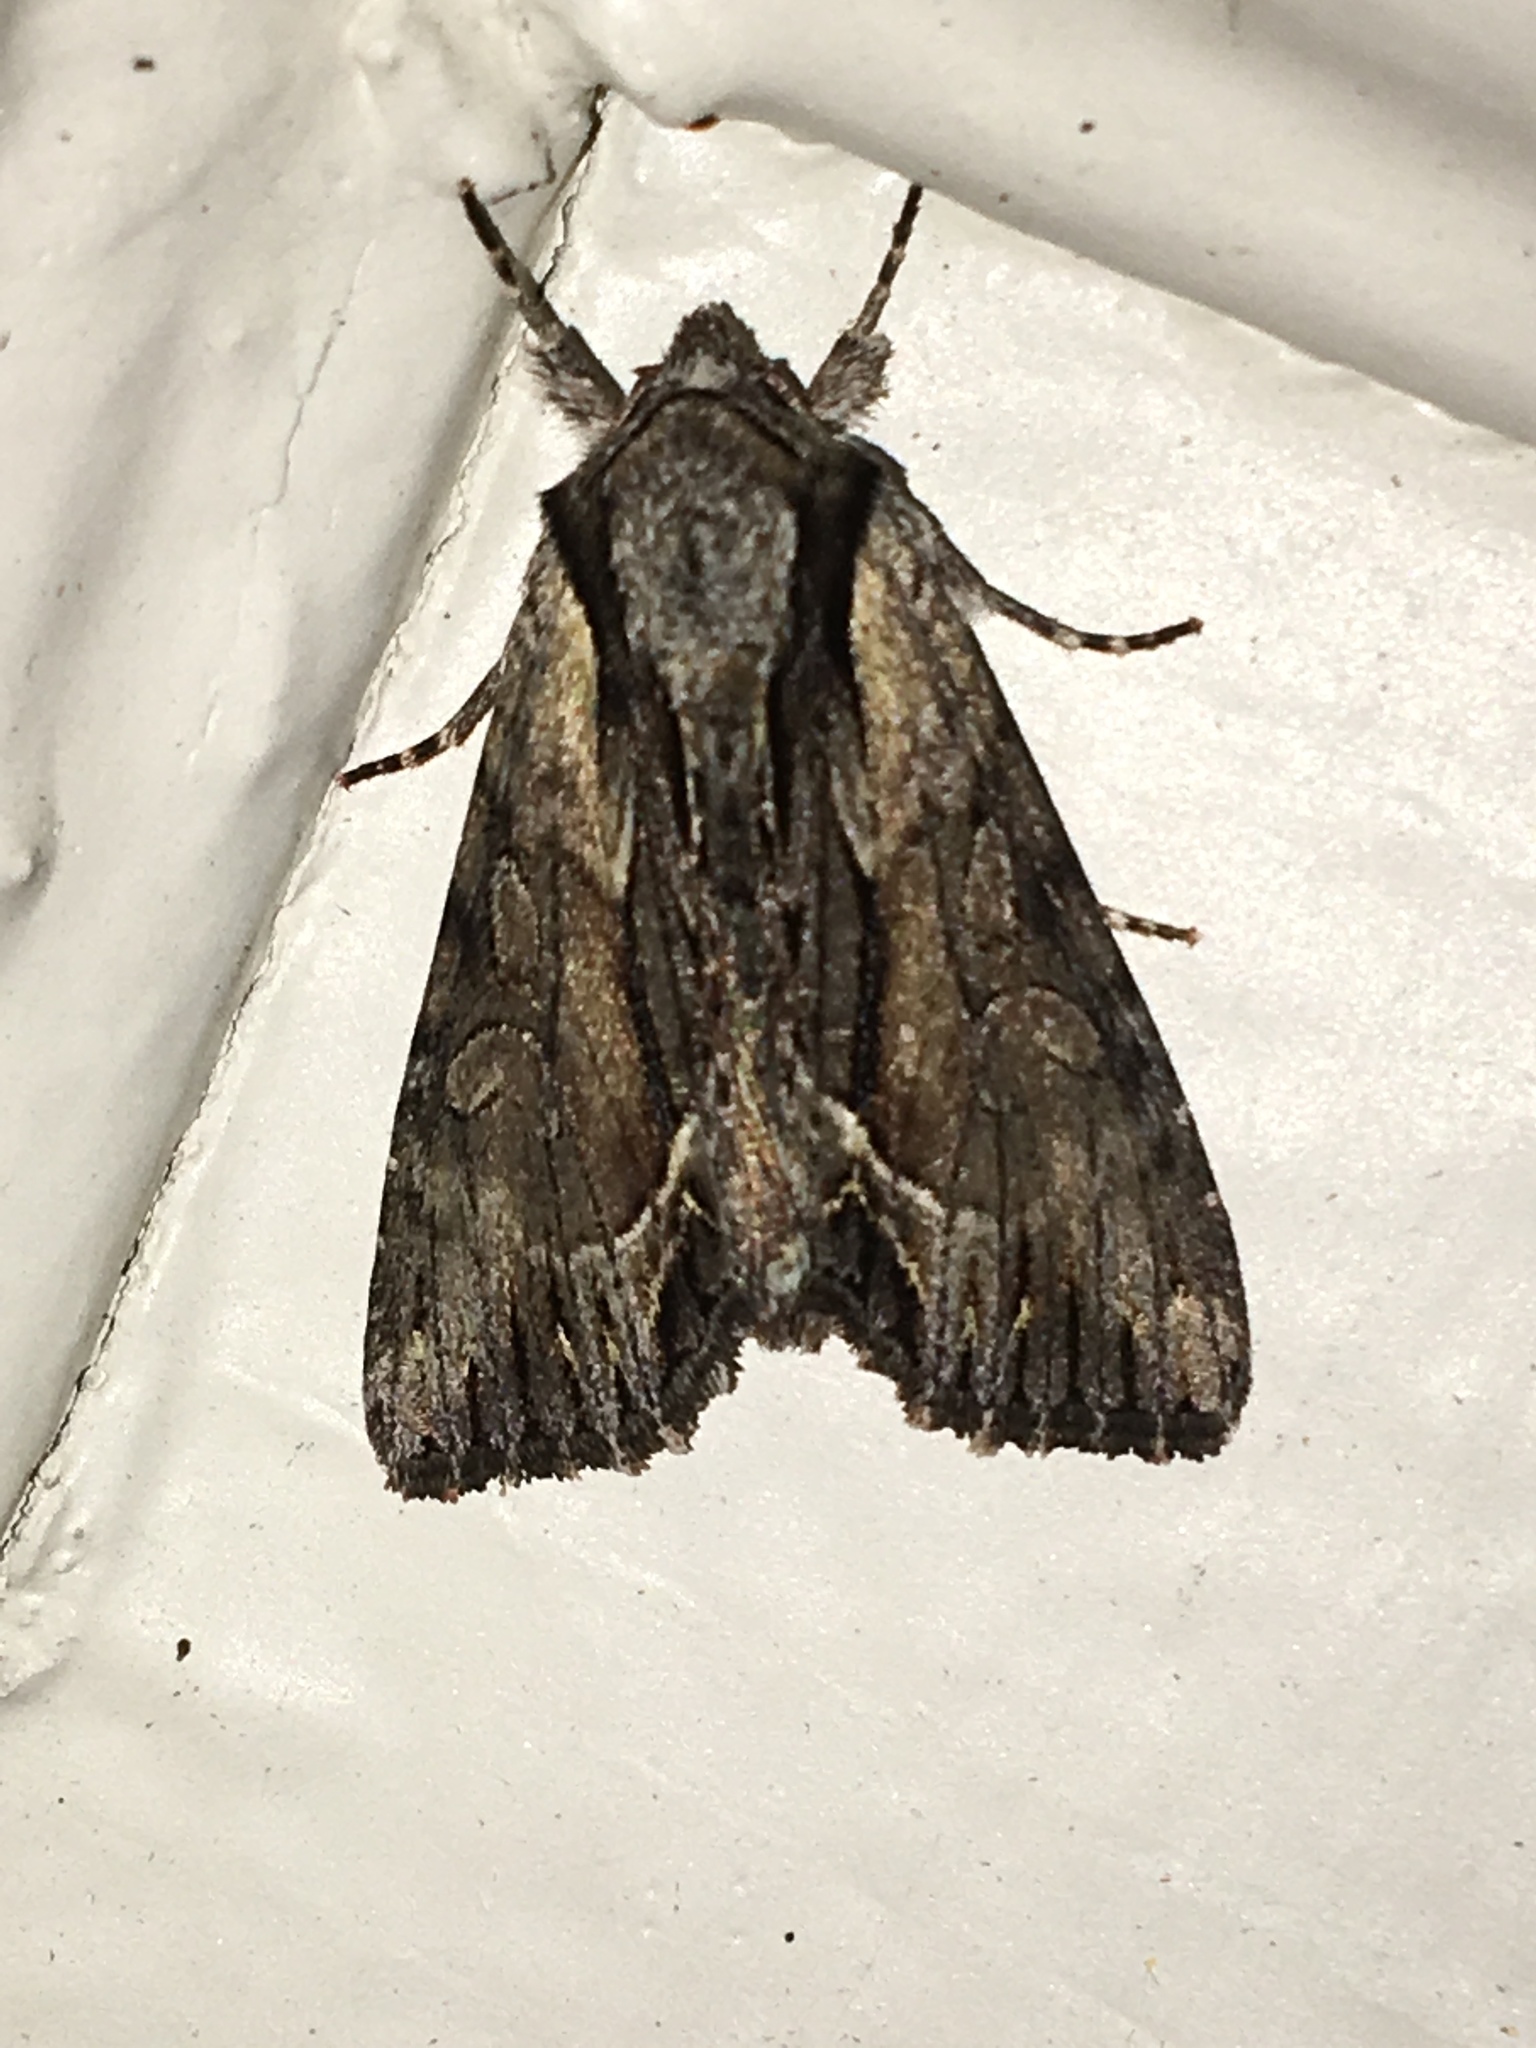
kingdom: Animalia
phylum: Arthropoda
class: Insecta
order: Lepidoptera
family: Noctuidae
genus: Hyppa
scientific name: Hyppa xylinoides
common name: Common hyppa moth
